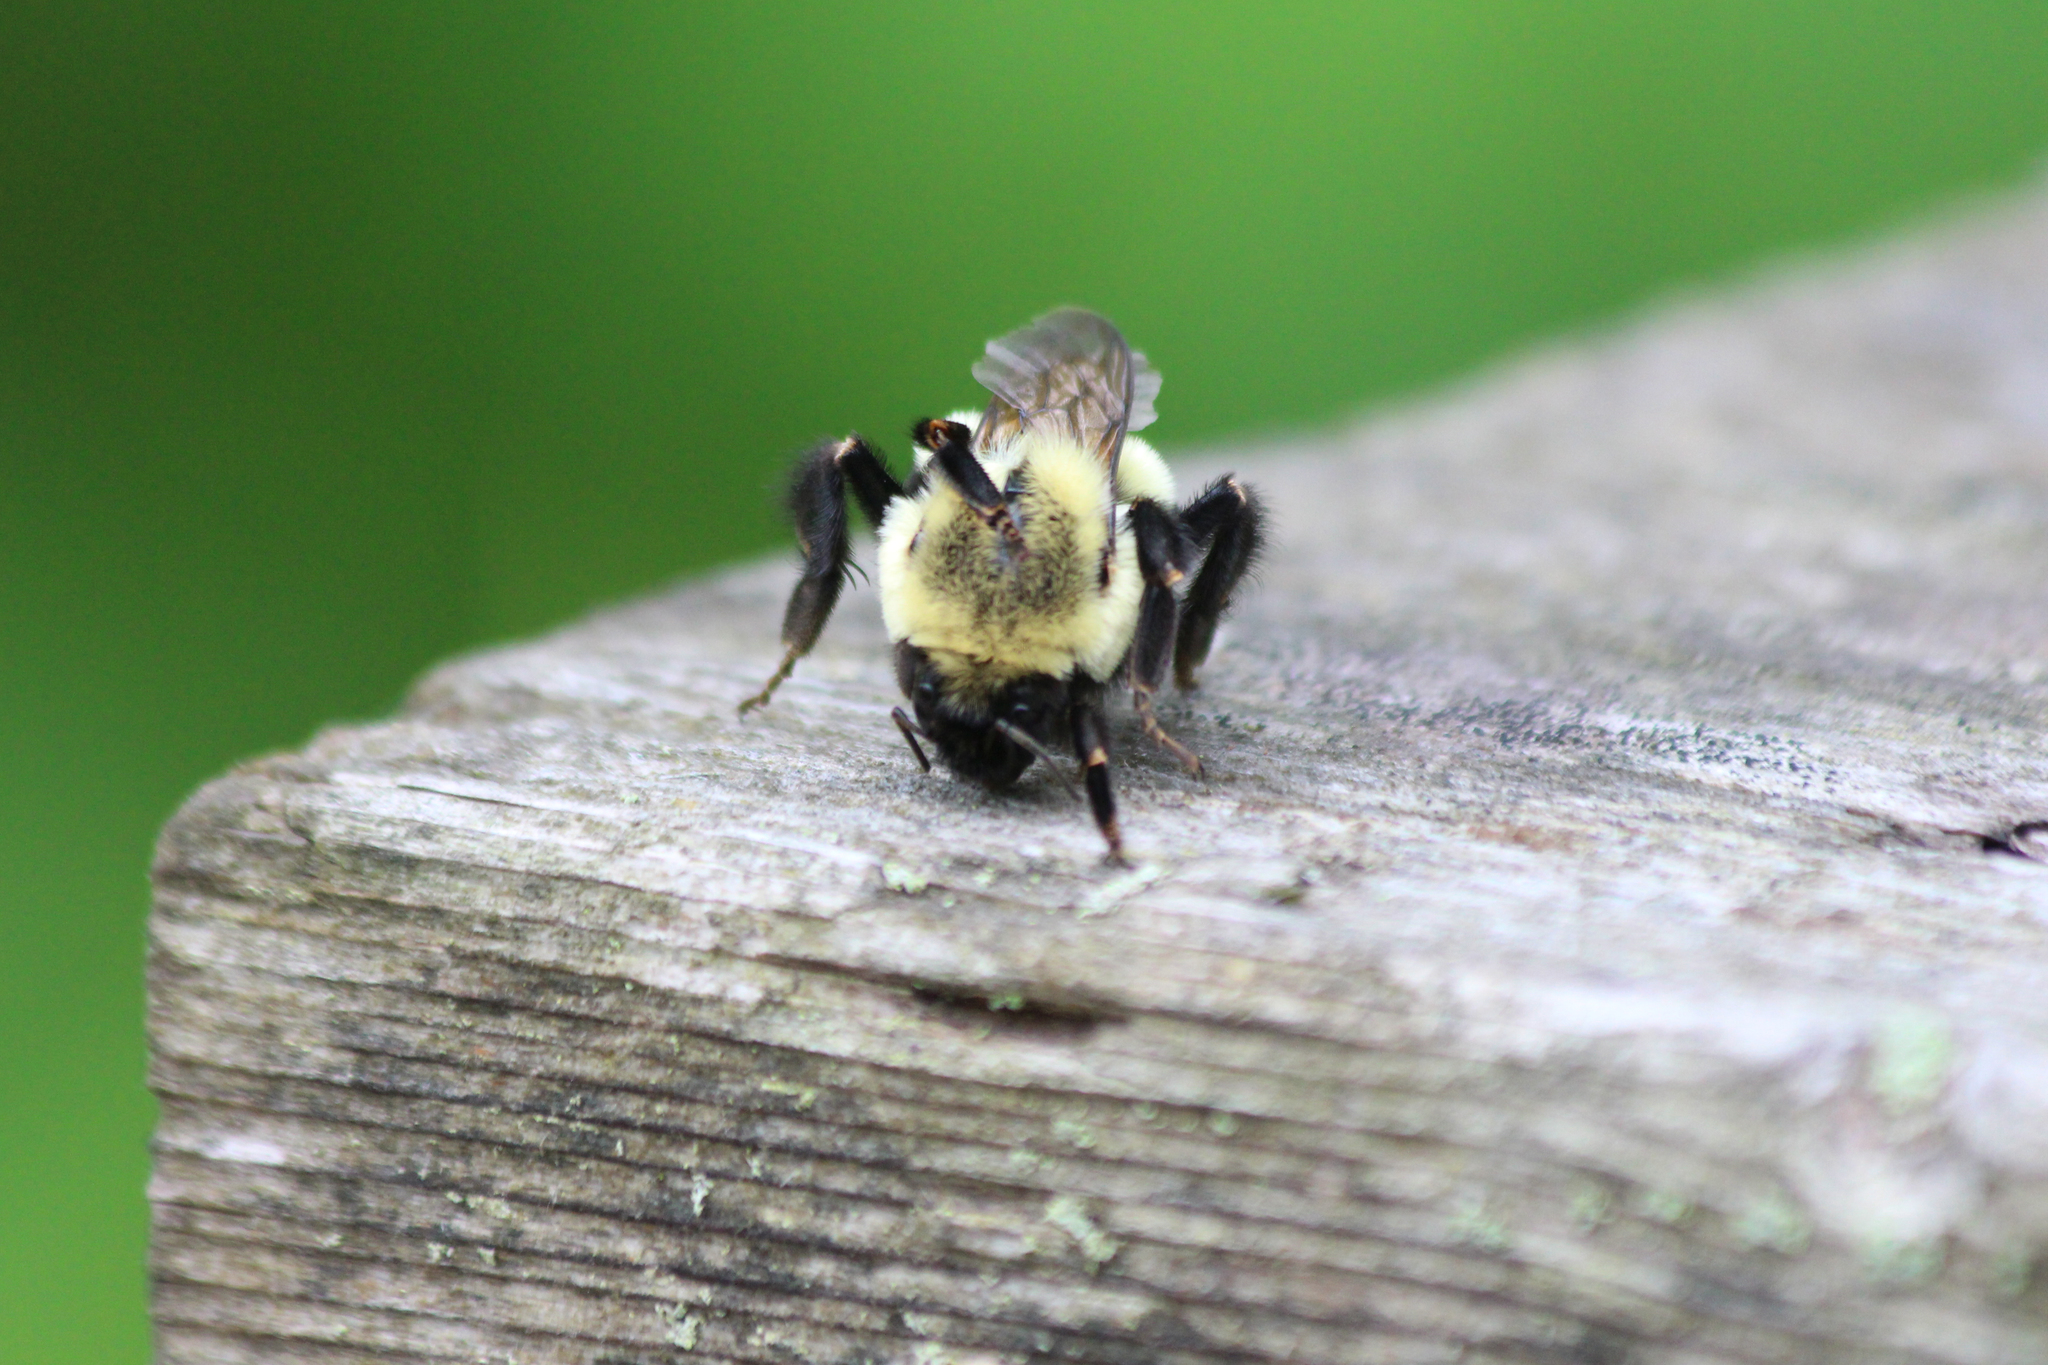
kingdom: Animalia
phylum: Arthropoda
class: Insecta
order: Hymenoptera
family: Apidae
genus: Bombus
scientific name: Bombus impatiens
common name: Common eastern bumble bee
